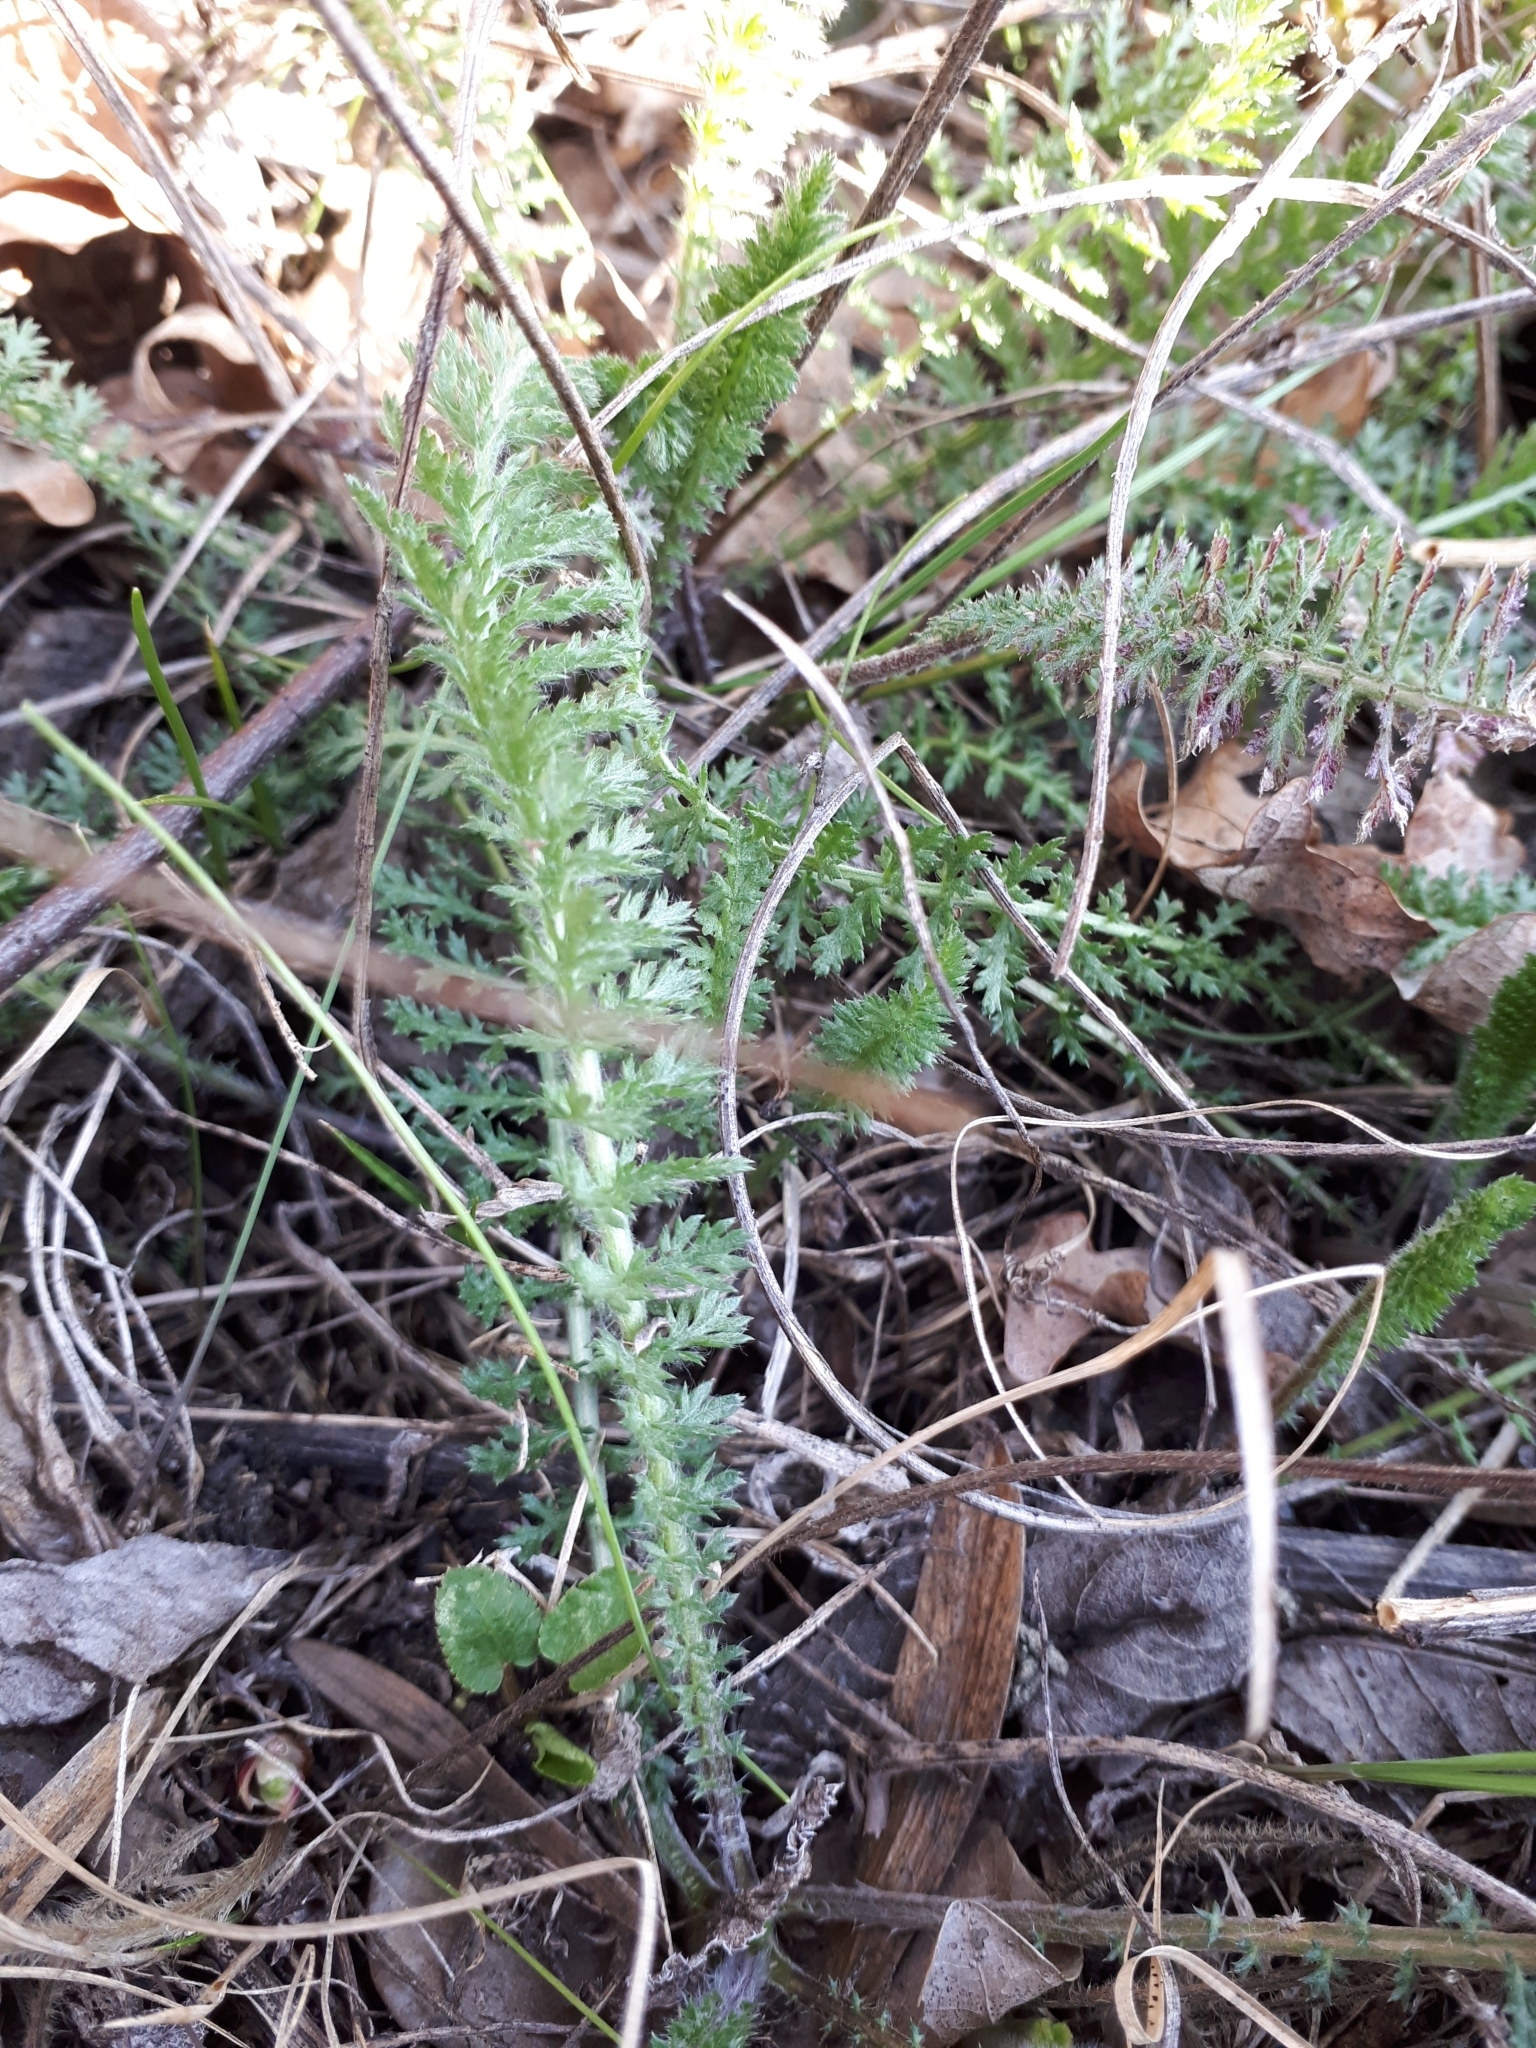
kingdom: Plantae
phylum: Tracheophyta
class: Magnoliopsida
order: Asterales
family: Asteraceae
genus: Achillea
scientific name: Achillea millefolium
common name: Yarrow
